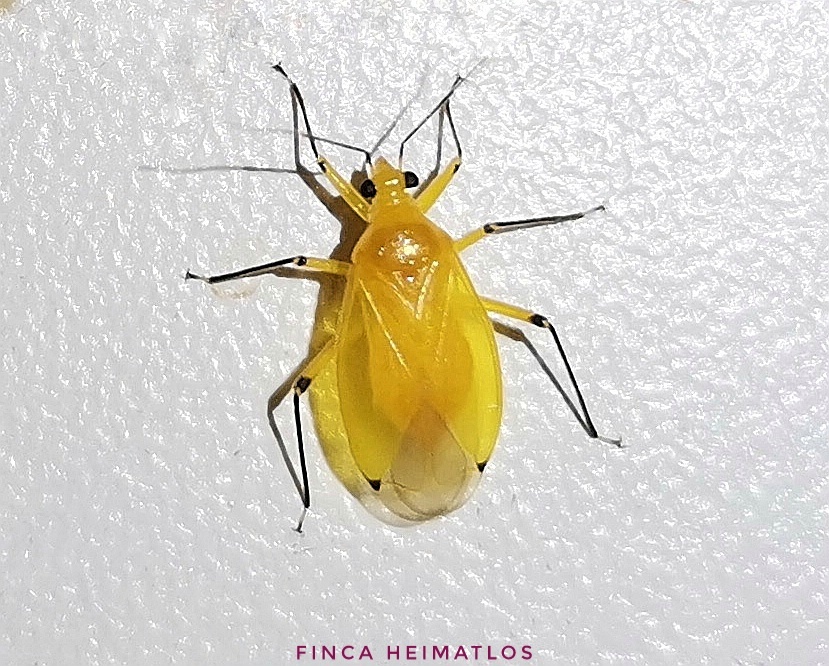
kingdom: Animalia
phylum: Arthropoda
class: Insecta
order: Hemiptera
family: Miridae
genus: Neella
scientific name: Neella cuneata
